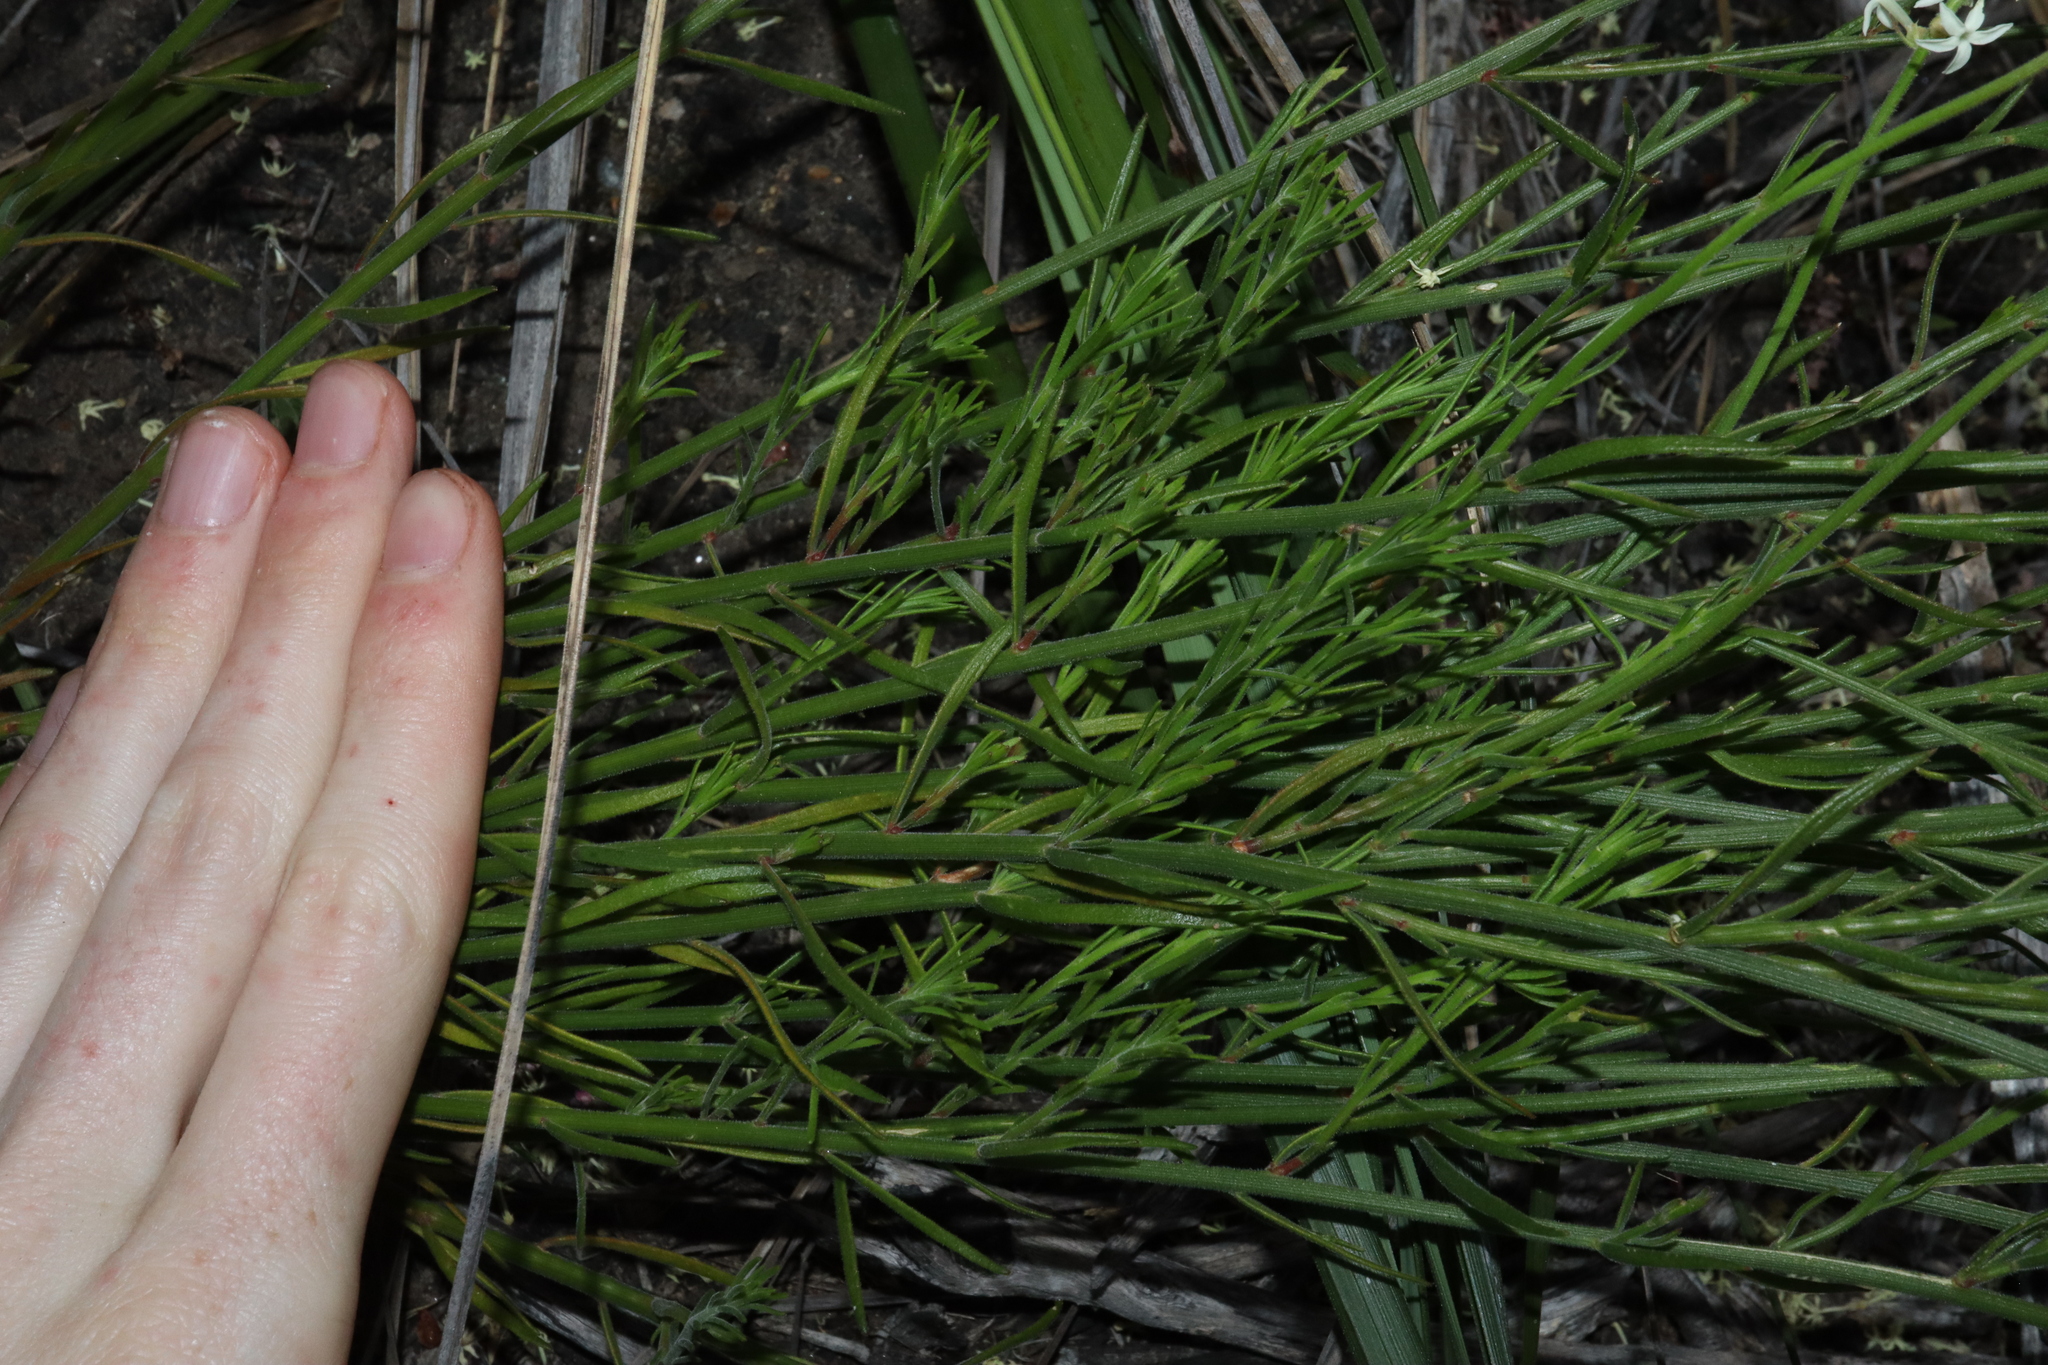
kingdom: Plantae
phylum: Tracheophyta
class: Magnoliopsida
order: Celastrales
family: Celastraceae
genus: Stackhousia
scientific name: Stackhousia monogyna
